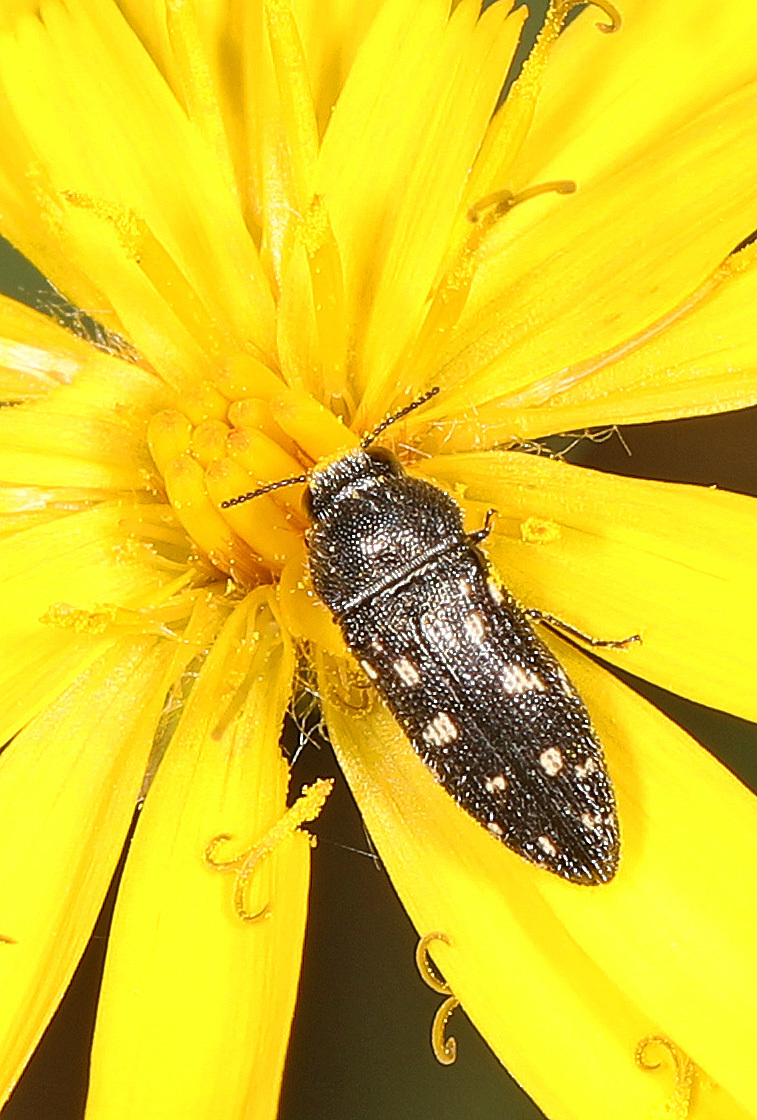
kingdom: Animalia
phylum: Arthropoda
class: Insecta
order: Coleoptera
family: Buprestidae
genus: Acmaeodera
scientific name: Acmaeodera tubulus
